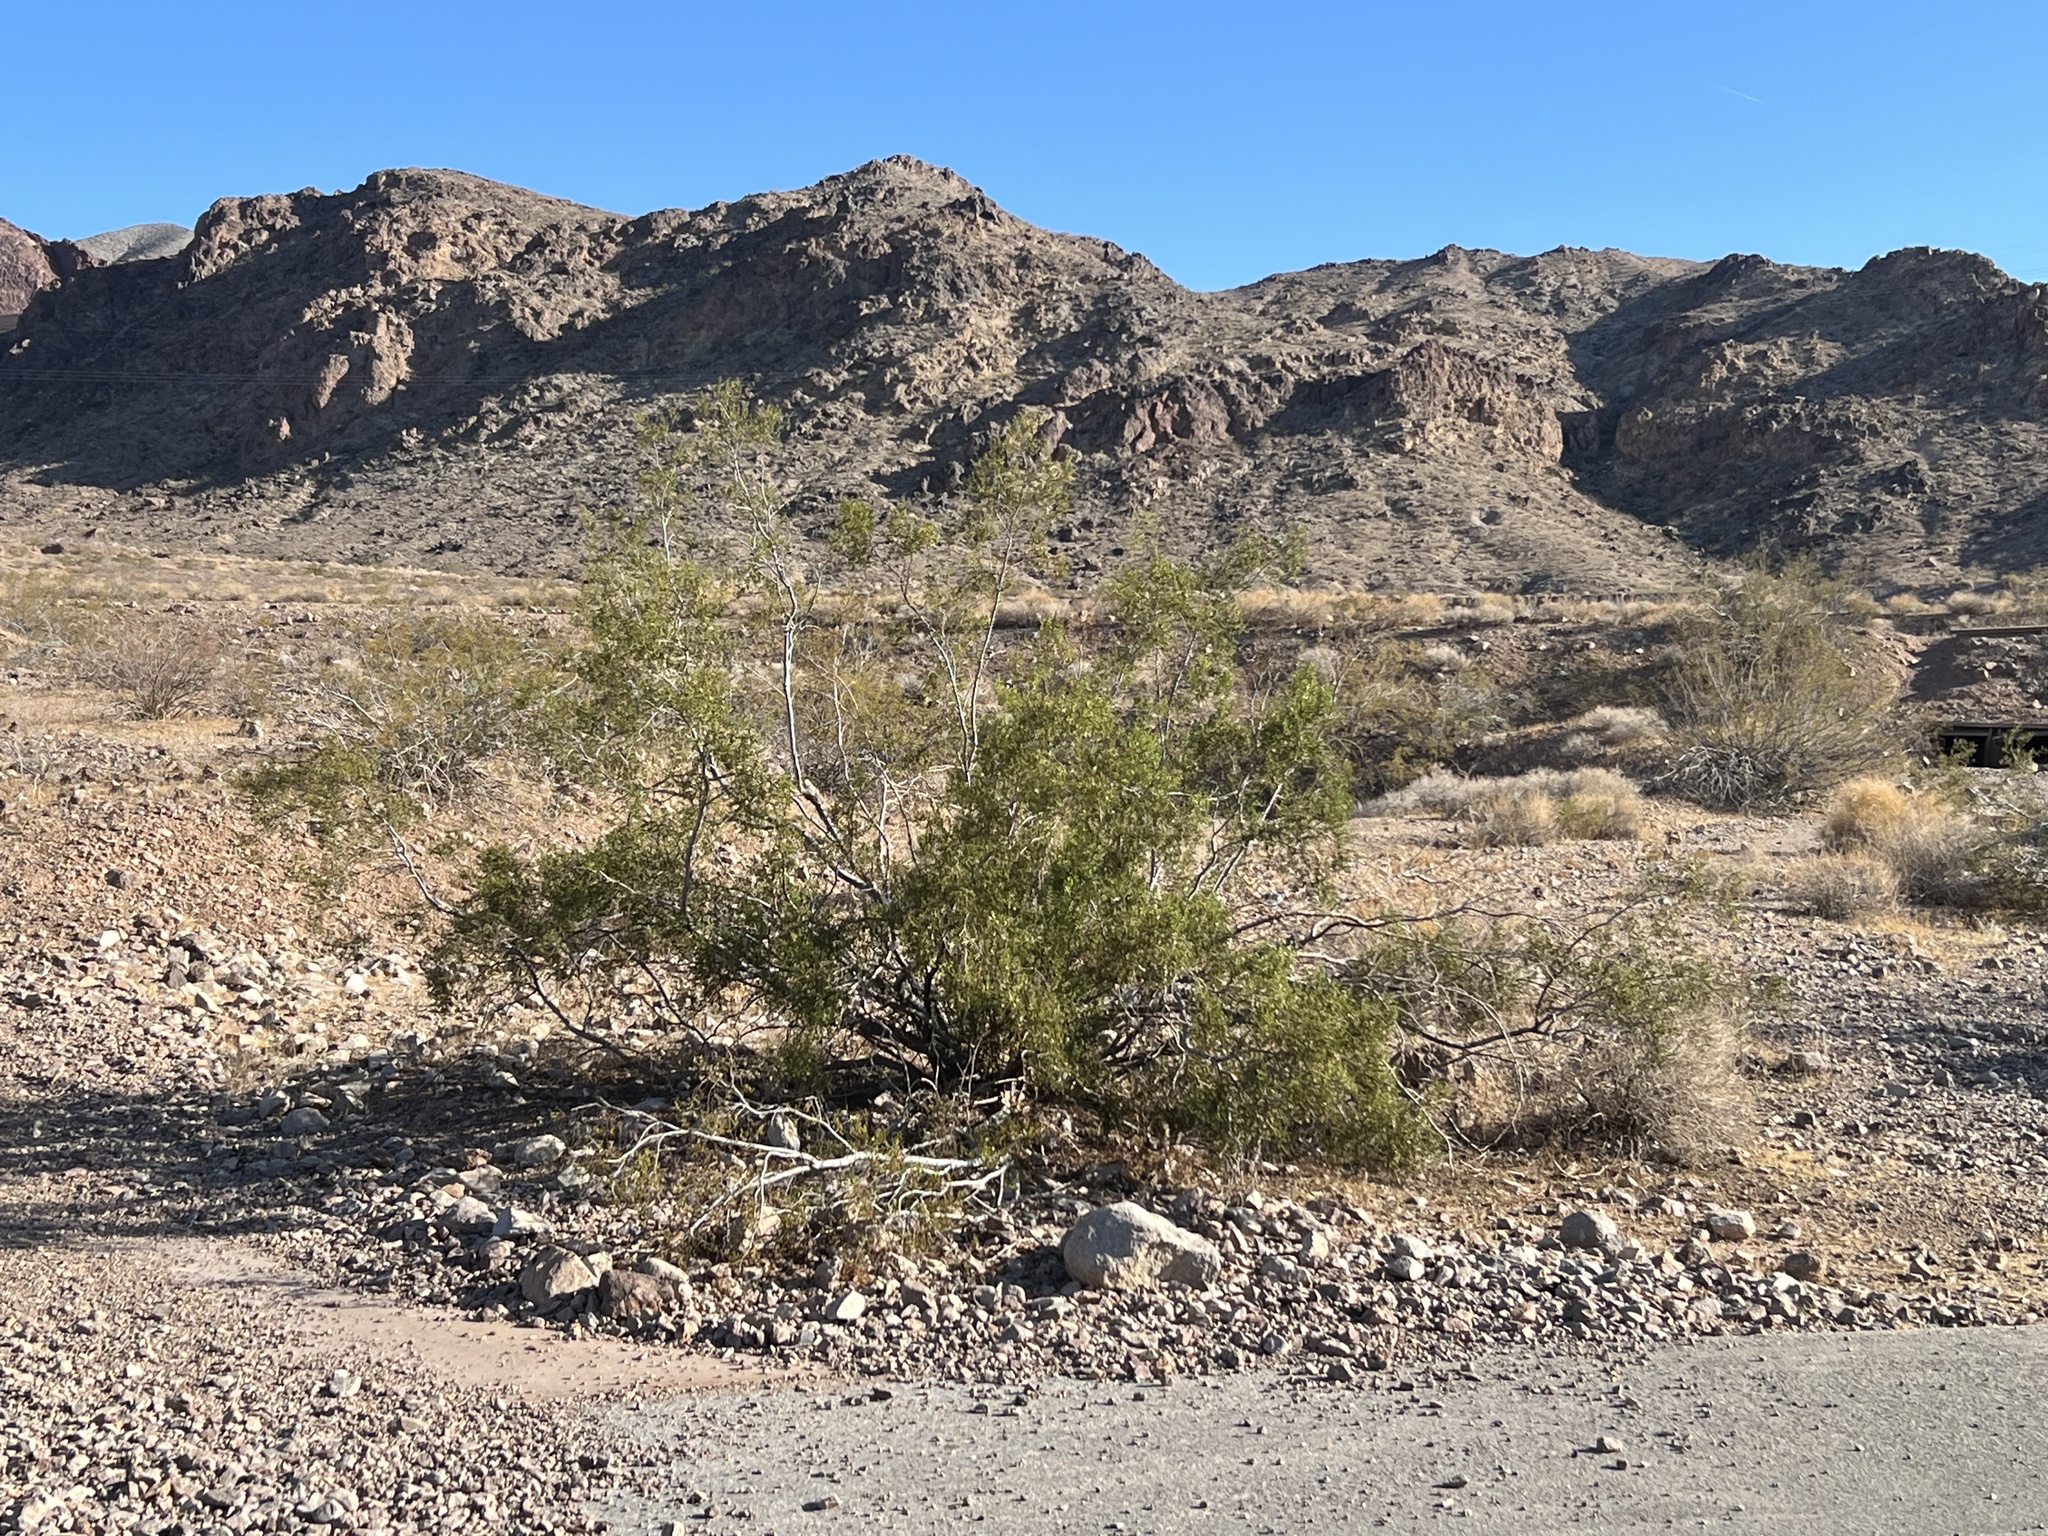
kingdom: Plantae
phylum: Tracheophyta
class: Magnoliopsida
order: Zygophyllales
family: Zygophyllaceae
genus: Larrea
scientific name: Larrea tridentata
